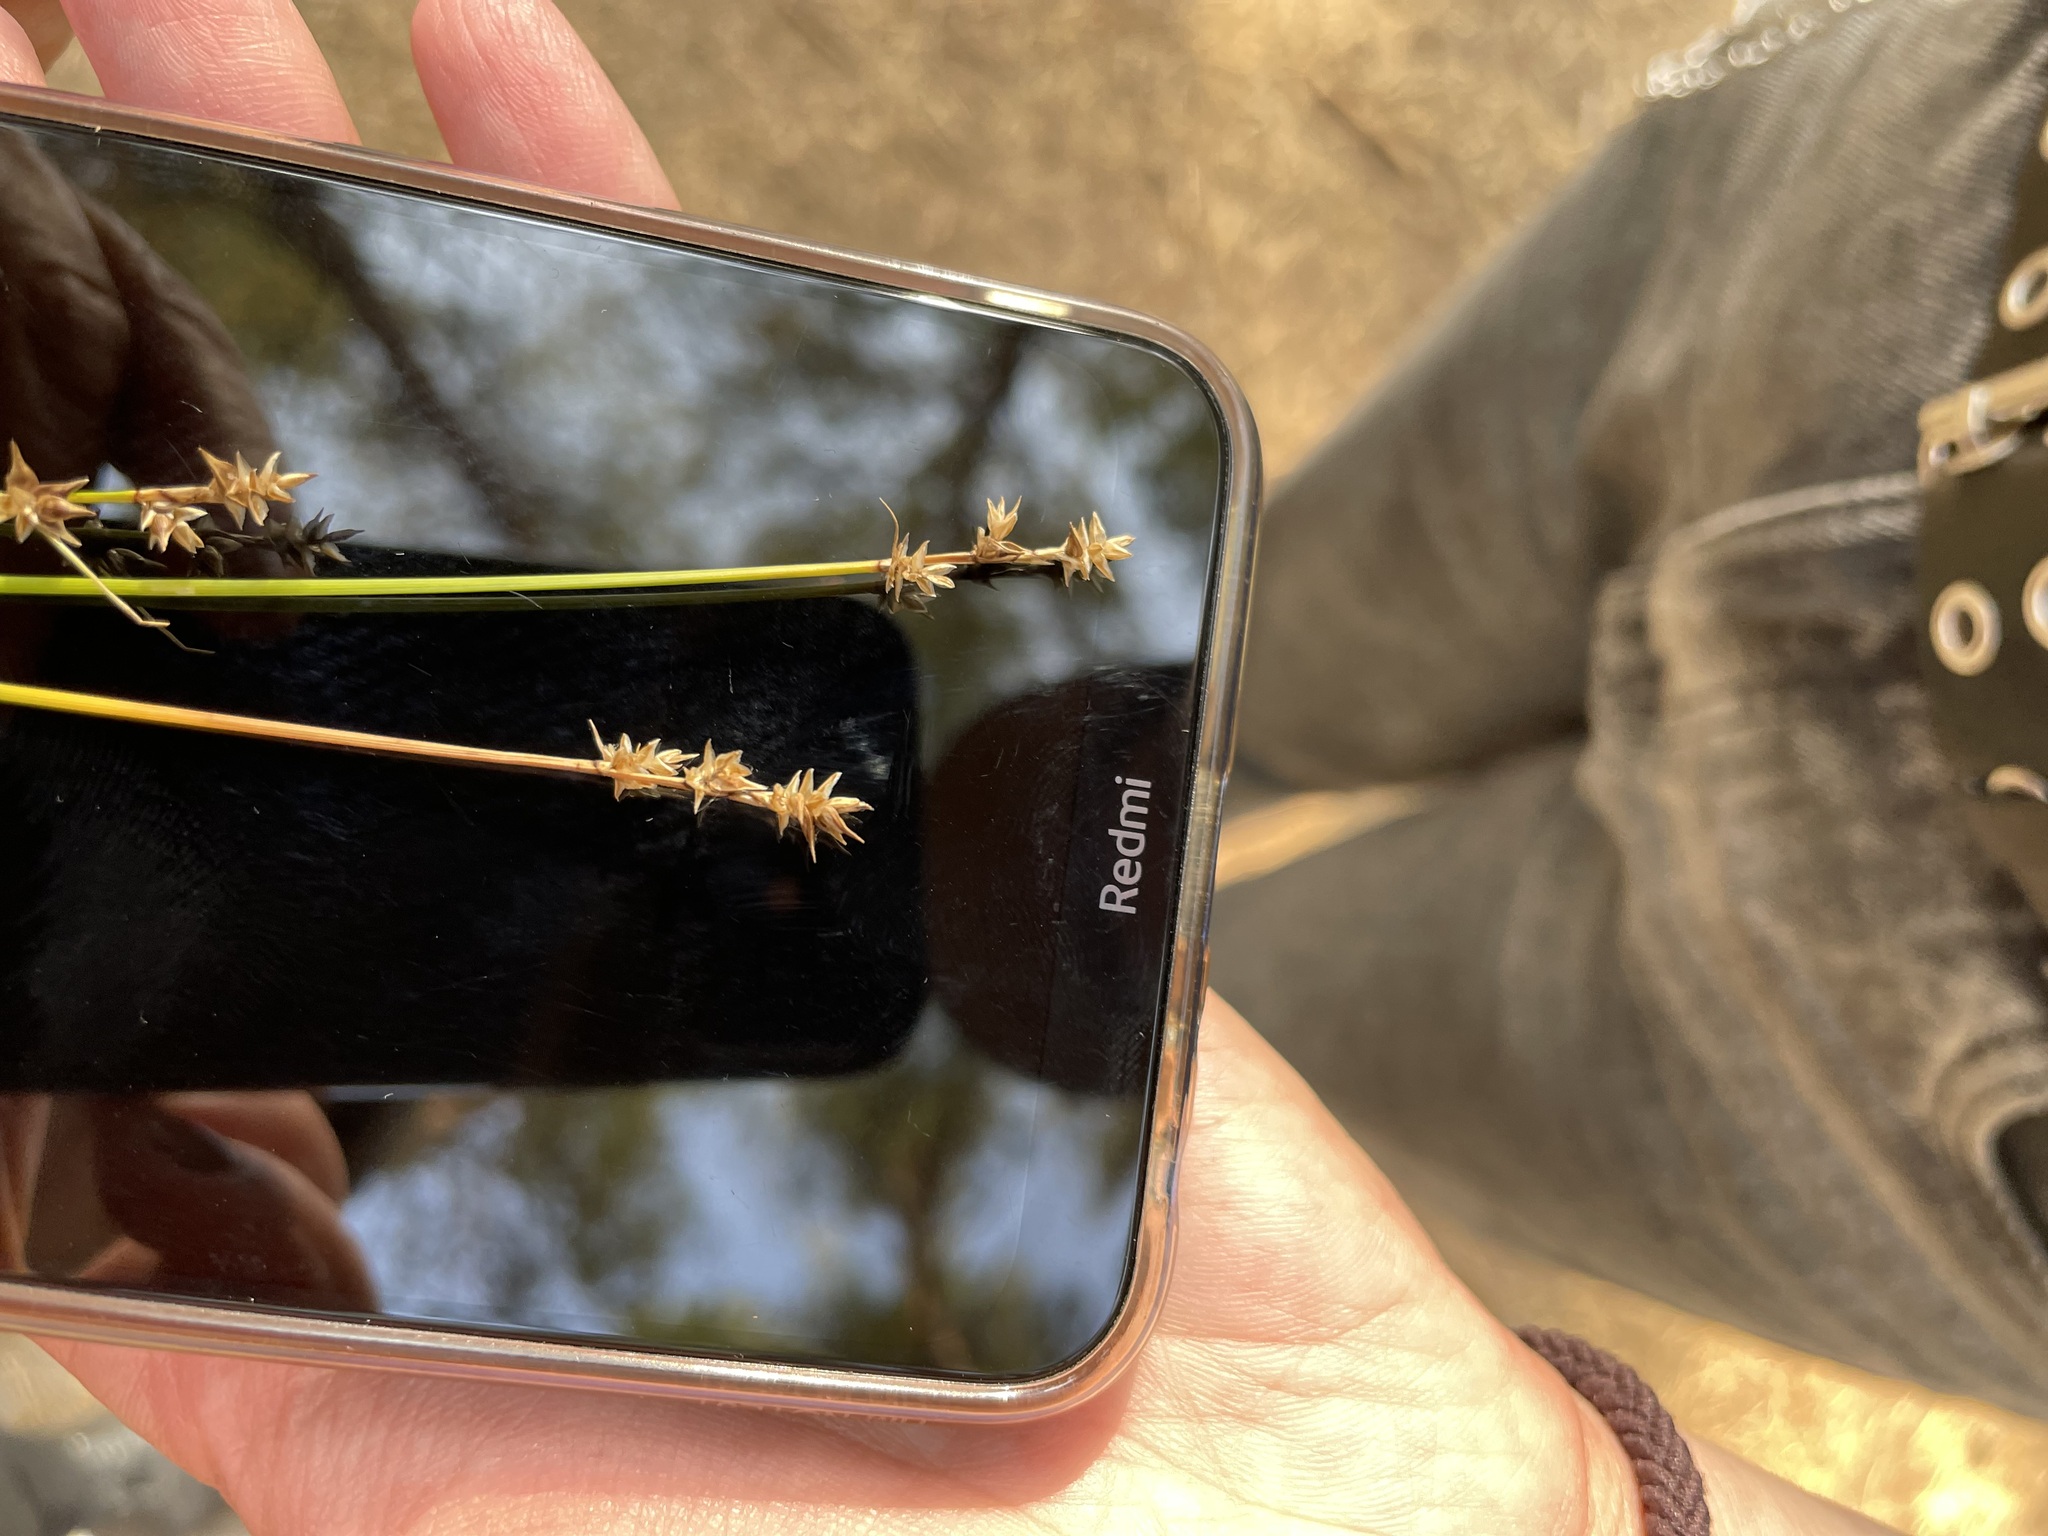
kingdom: Plantae
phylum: Tracheophyta
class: Liliopsida
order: Poales
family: Cyperaceae
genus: Carex
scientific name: Carex echinata
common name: Star sedge
